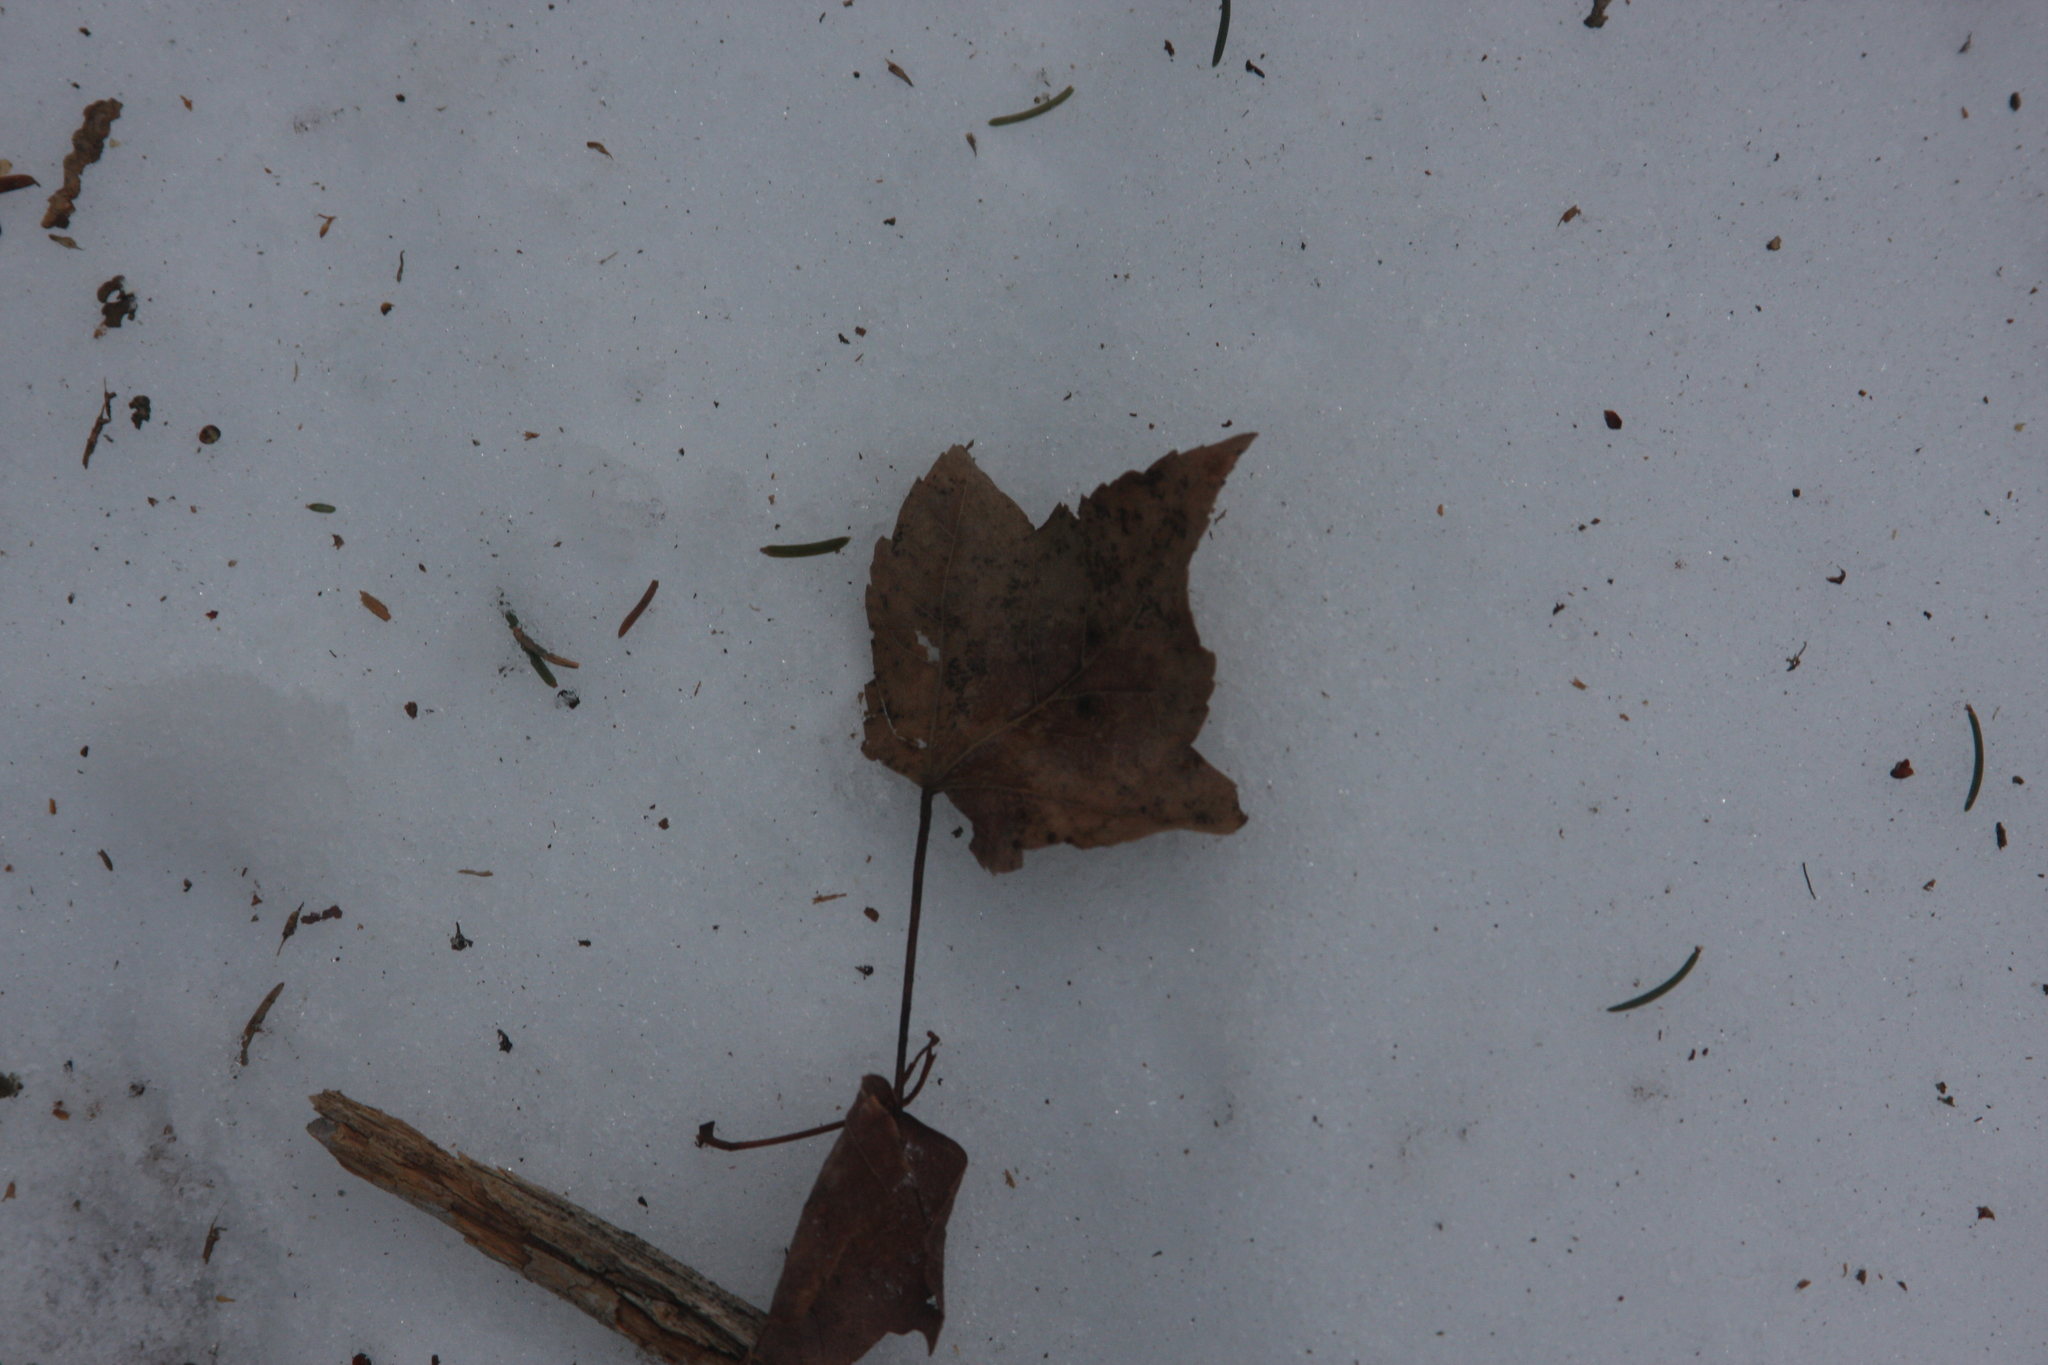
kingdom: Plantae
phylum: Tracheophyta
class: Magnoliopsida
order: Sapindales
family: Sapindaceae
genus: Acer
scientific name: Acer rubrum
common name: Red maple
